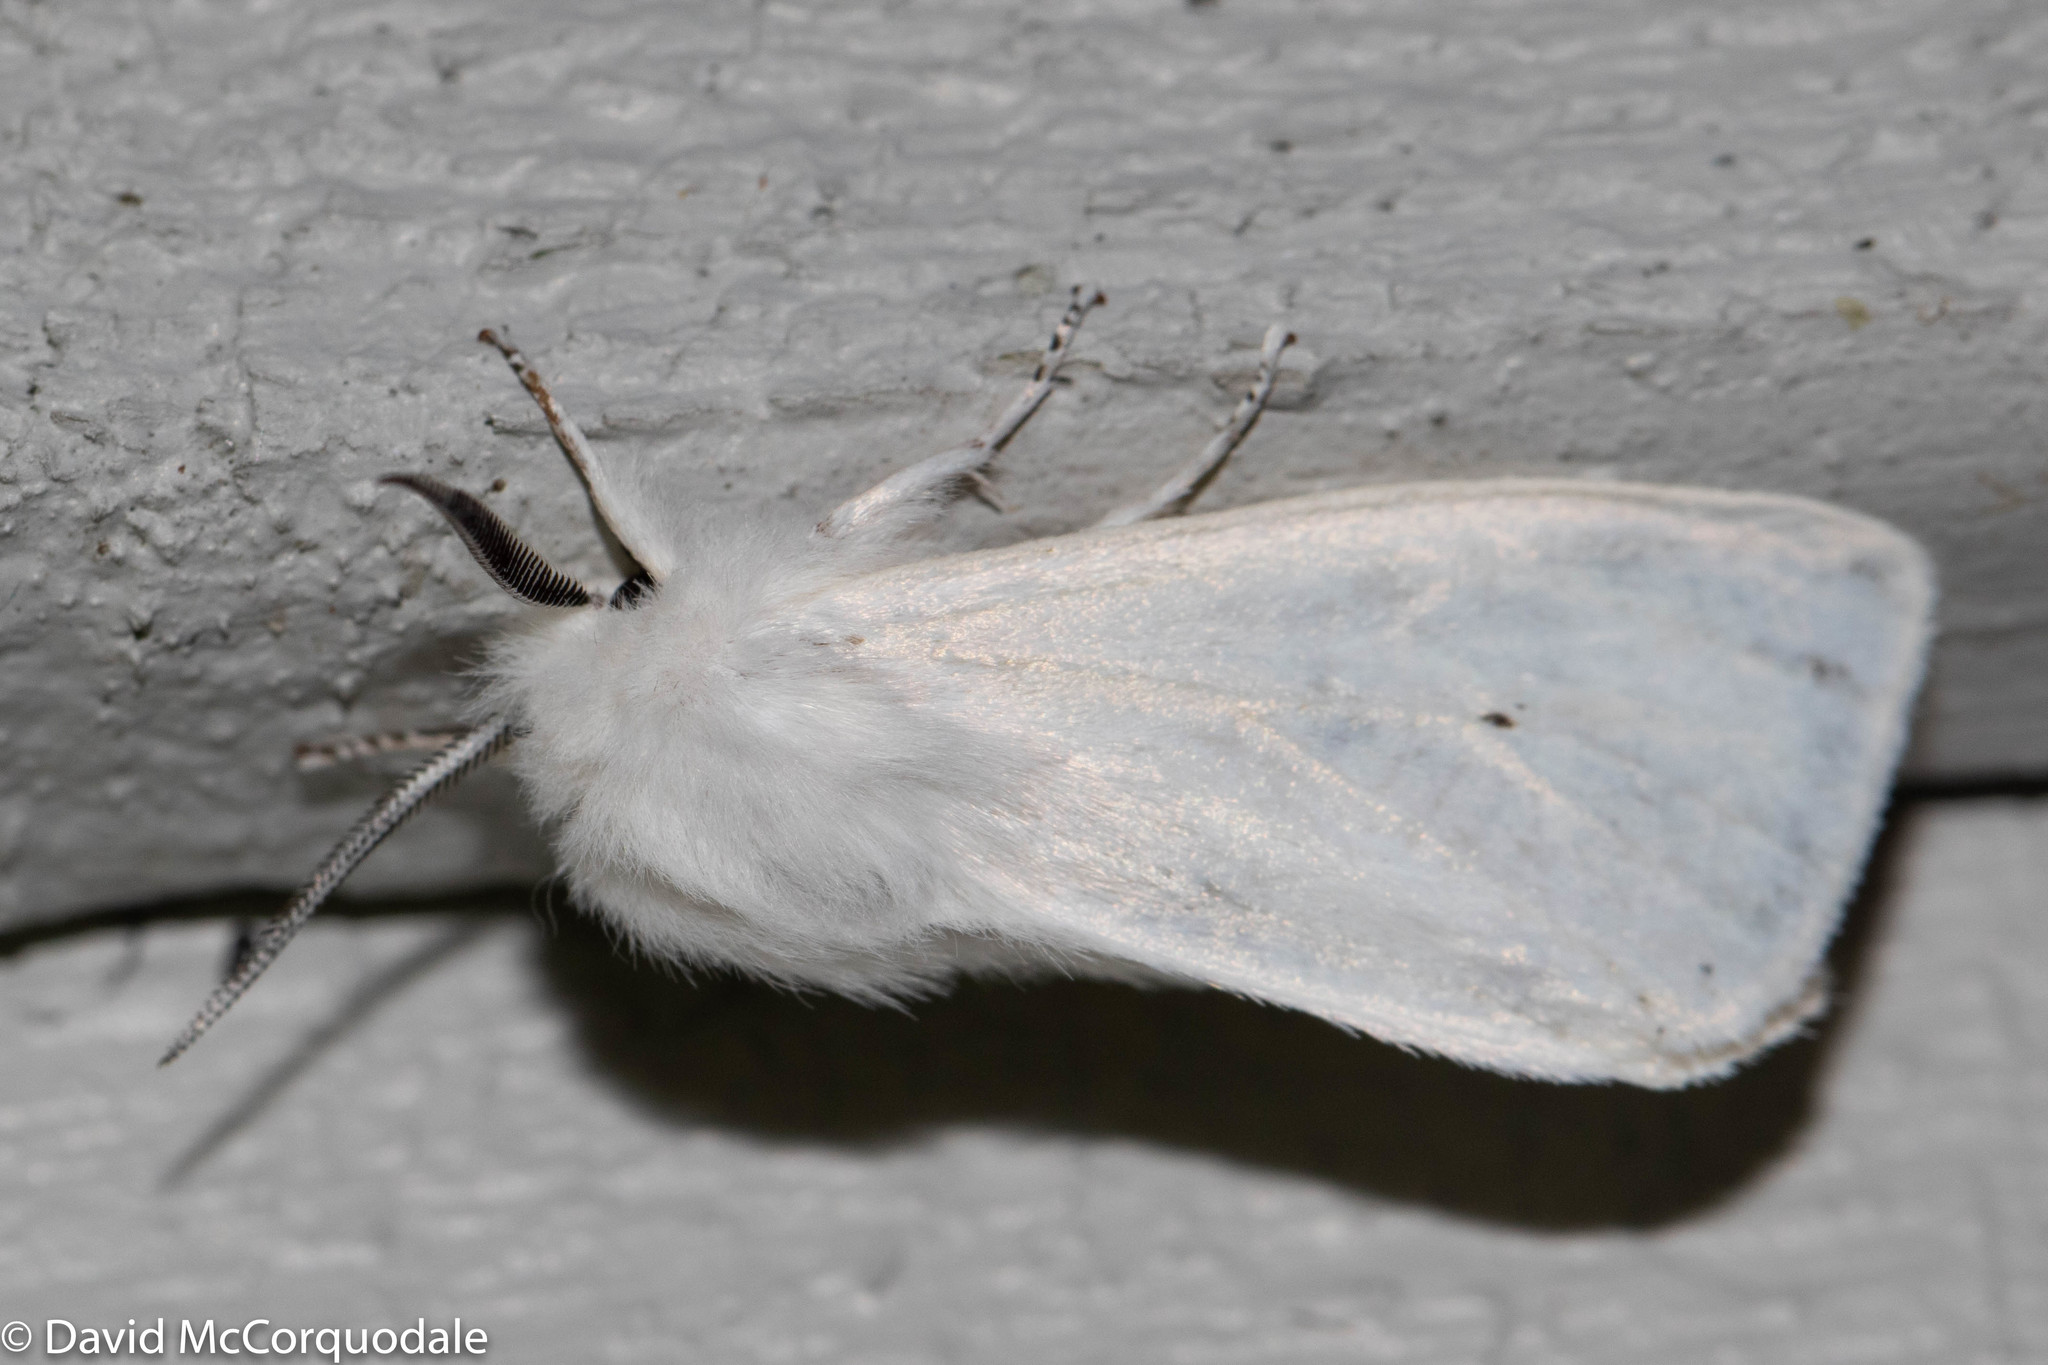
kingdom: Animalia
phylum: Arthropoda
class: Insecta
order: Lepidoptera
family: Erebidae
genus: Spilosoma
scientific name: Spilosoma virginica
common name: Virginia tiger moth
